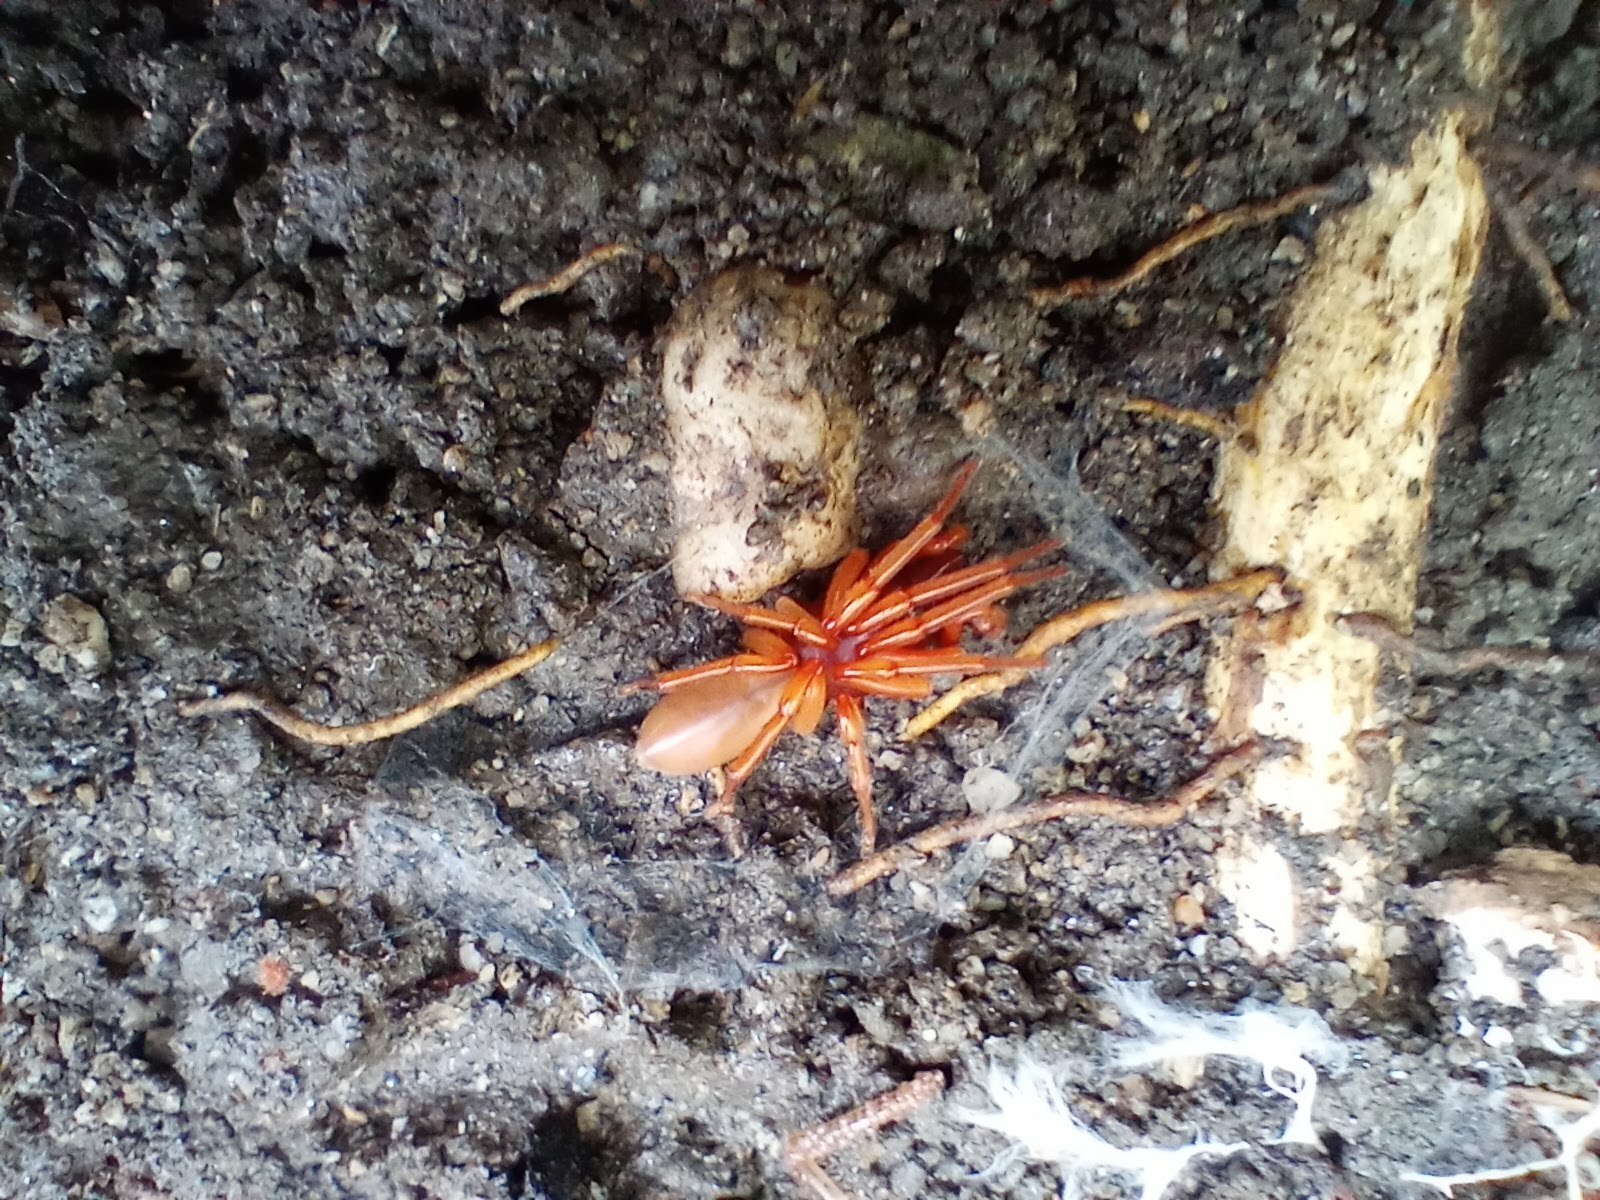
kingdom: Animalia
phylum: Arthropoda
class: Arachnida
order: Araneae
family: Dysderidae
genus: Dysdera
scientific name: Dysdera crocata
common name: Woodlouse spider
